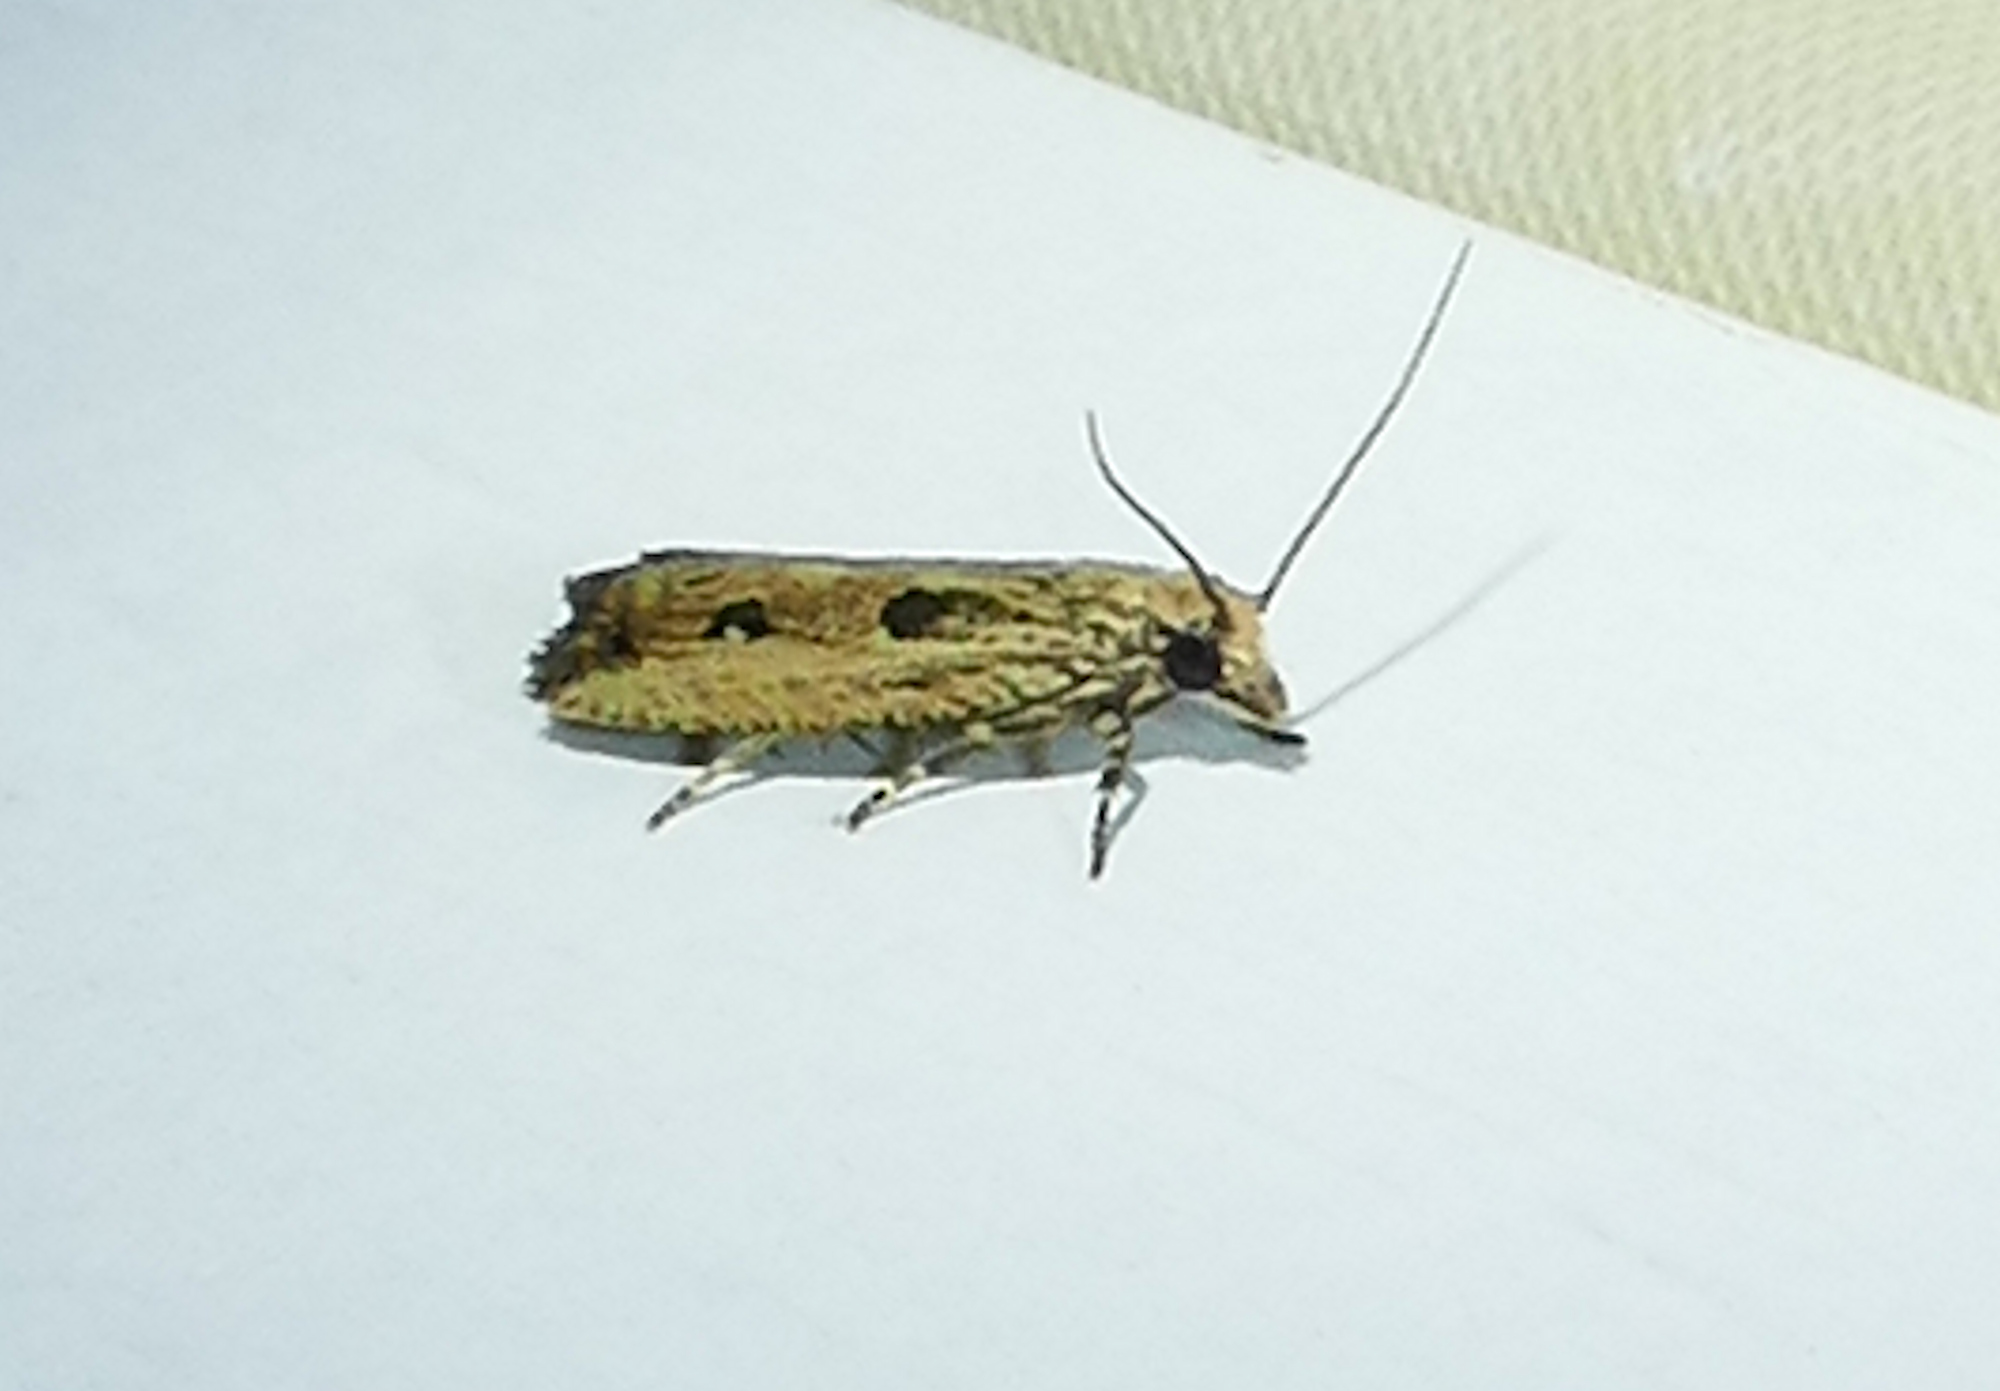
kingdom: Animalia
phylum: Arthropoda
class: Insecta
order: Lepidoptera
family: Tortricidae
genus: Bactra
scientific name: Bactra verutana
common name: Javelin moth
